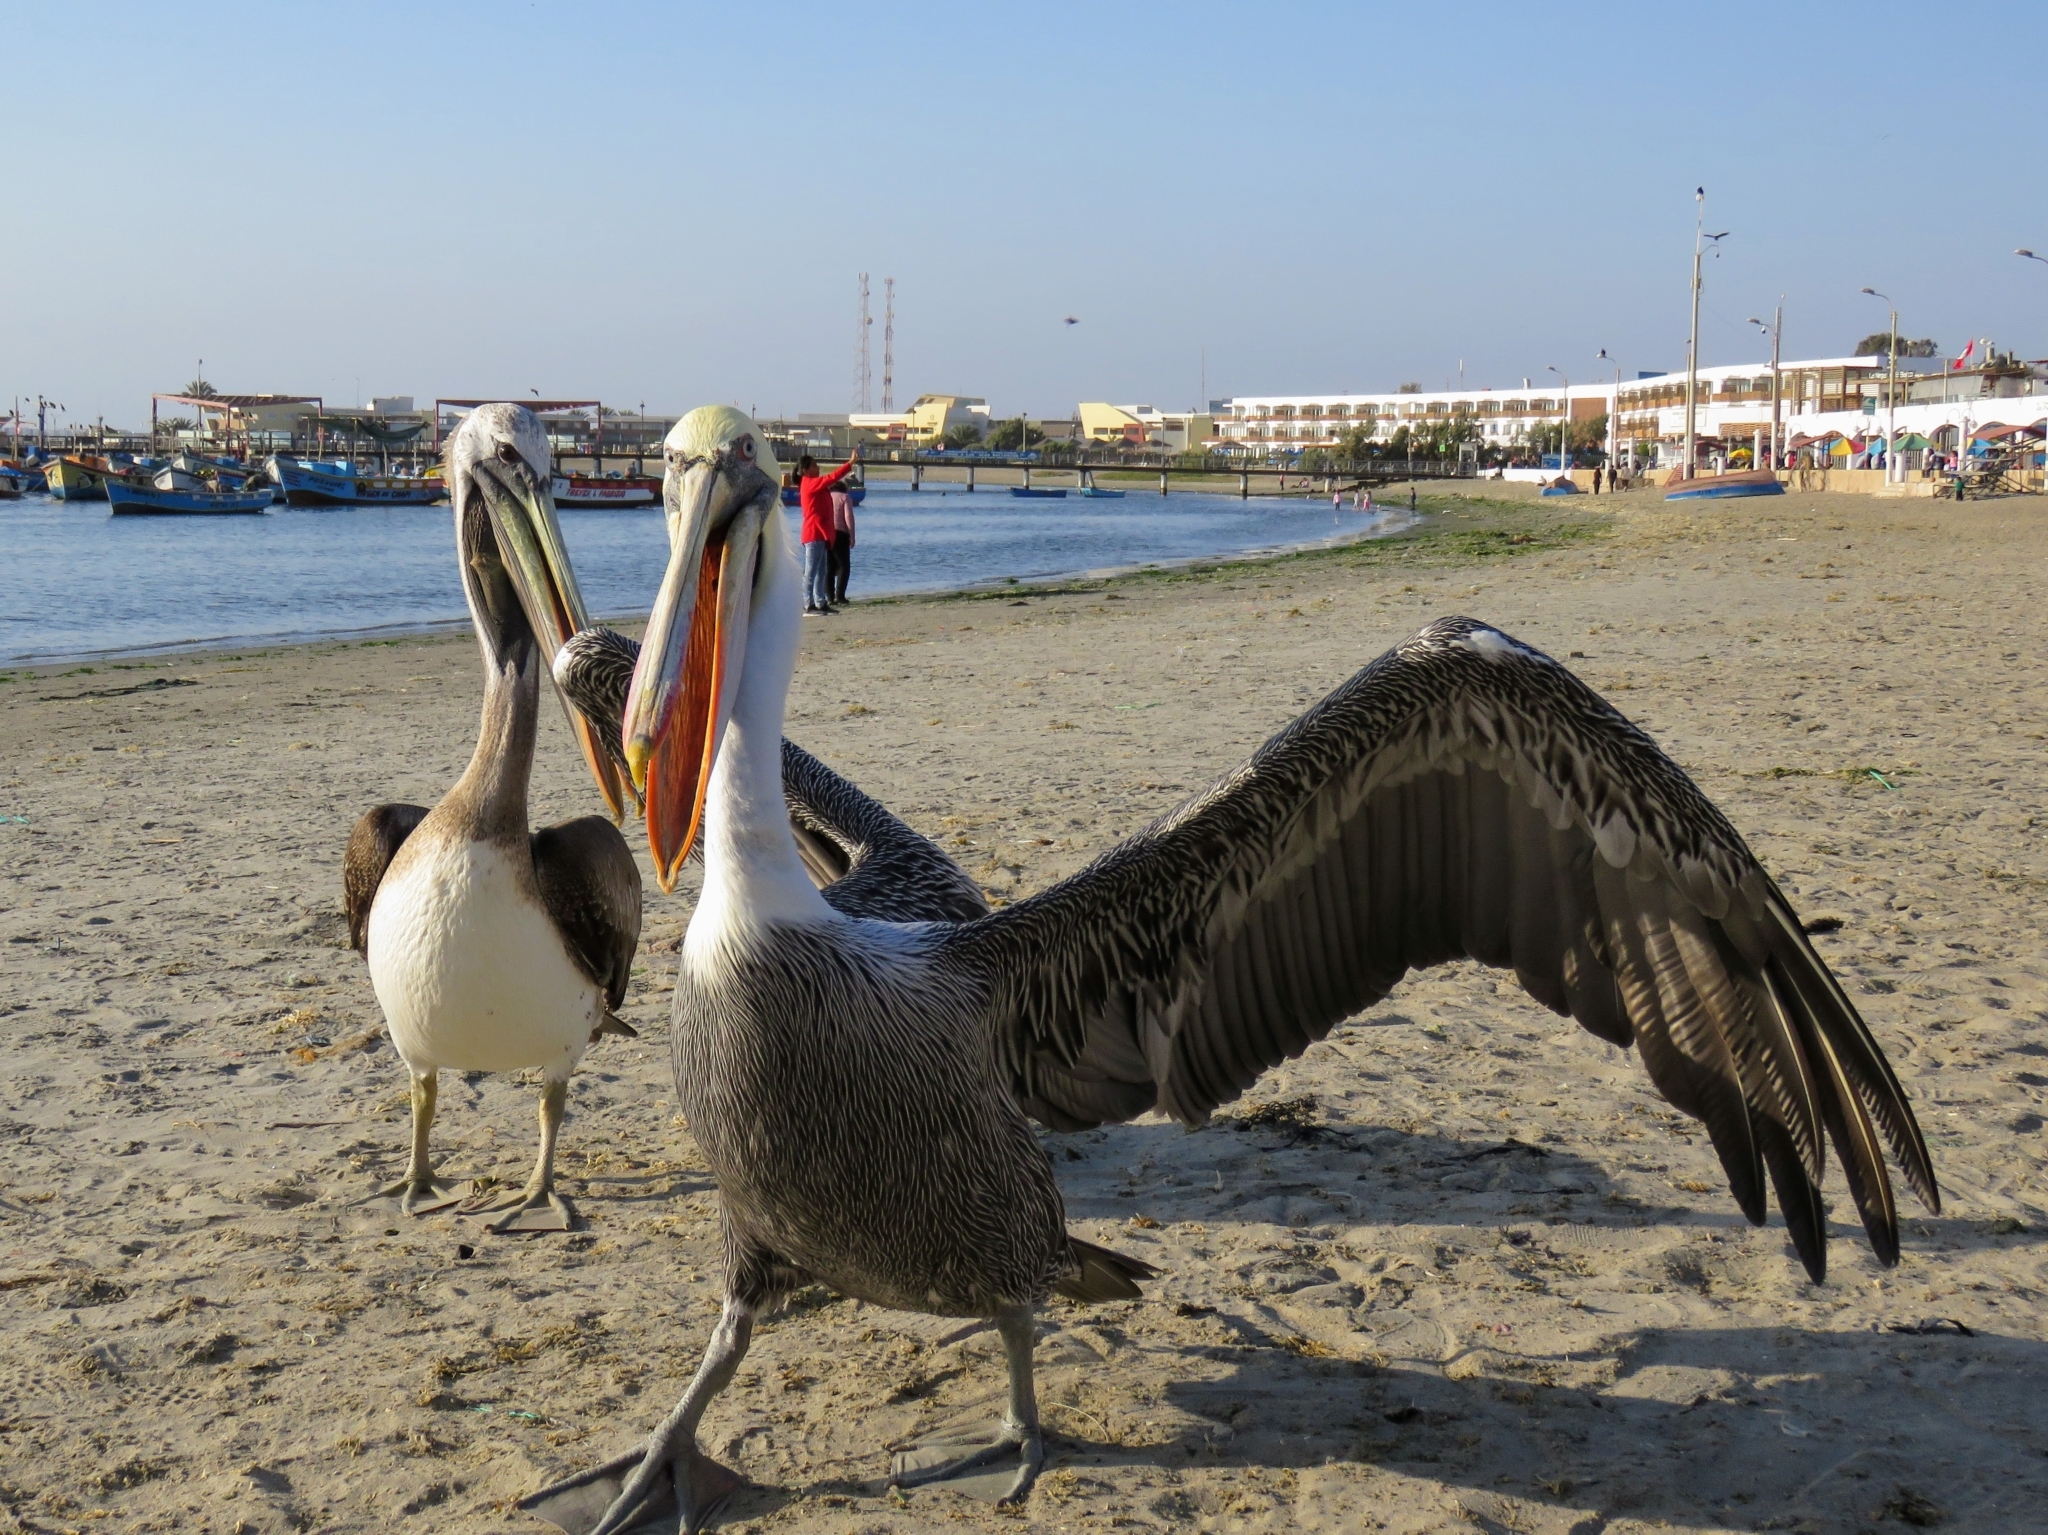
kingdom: Animalia
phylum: Chordata
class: Aves
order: Pelecaniformes
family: Pelecanidae
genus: Pelecanus
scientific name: Pelecanus thagus
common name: Peruvian pelican
